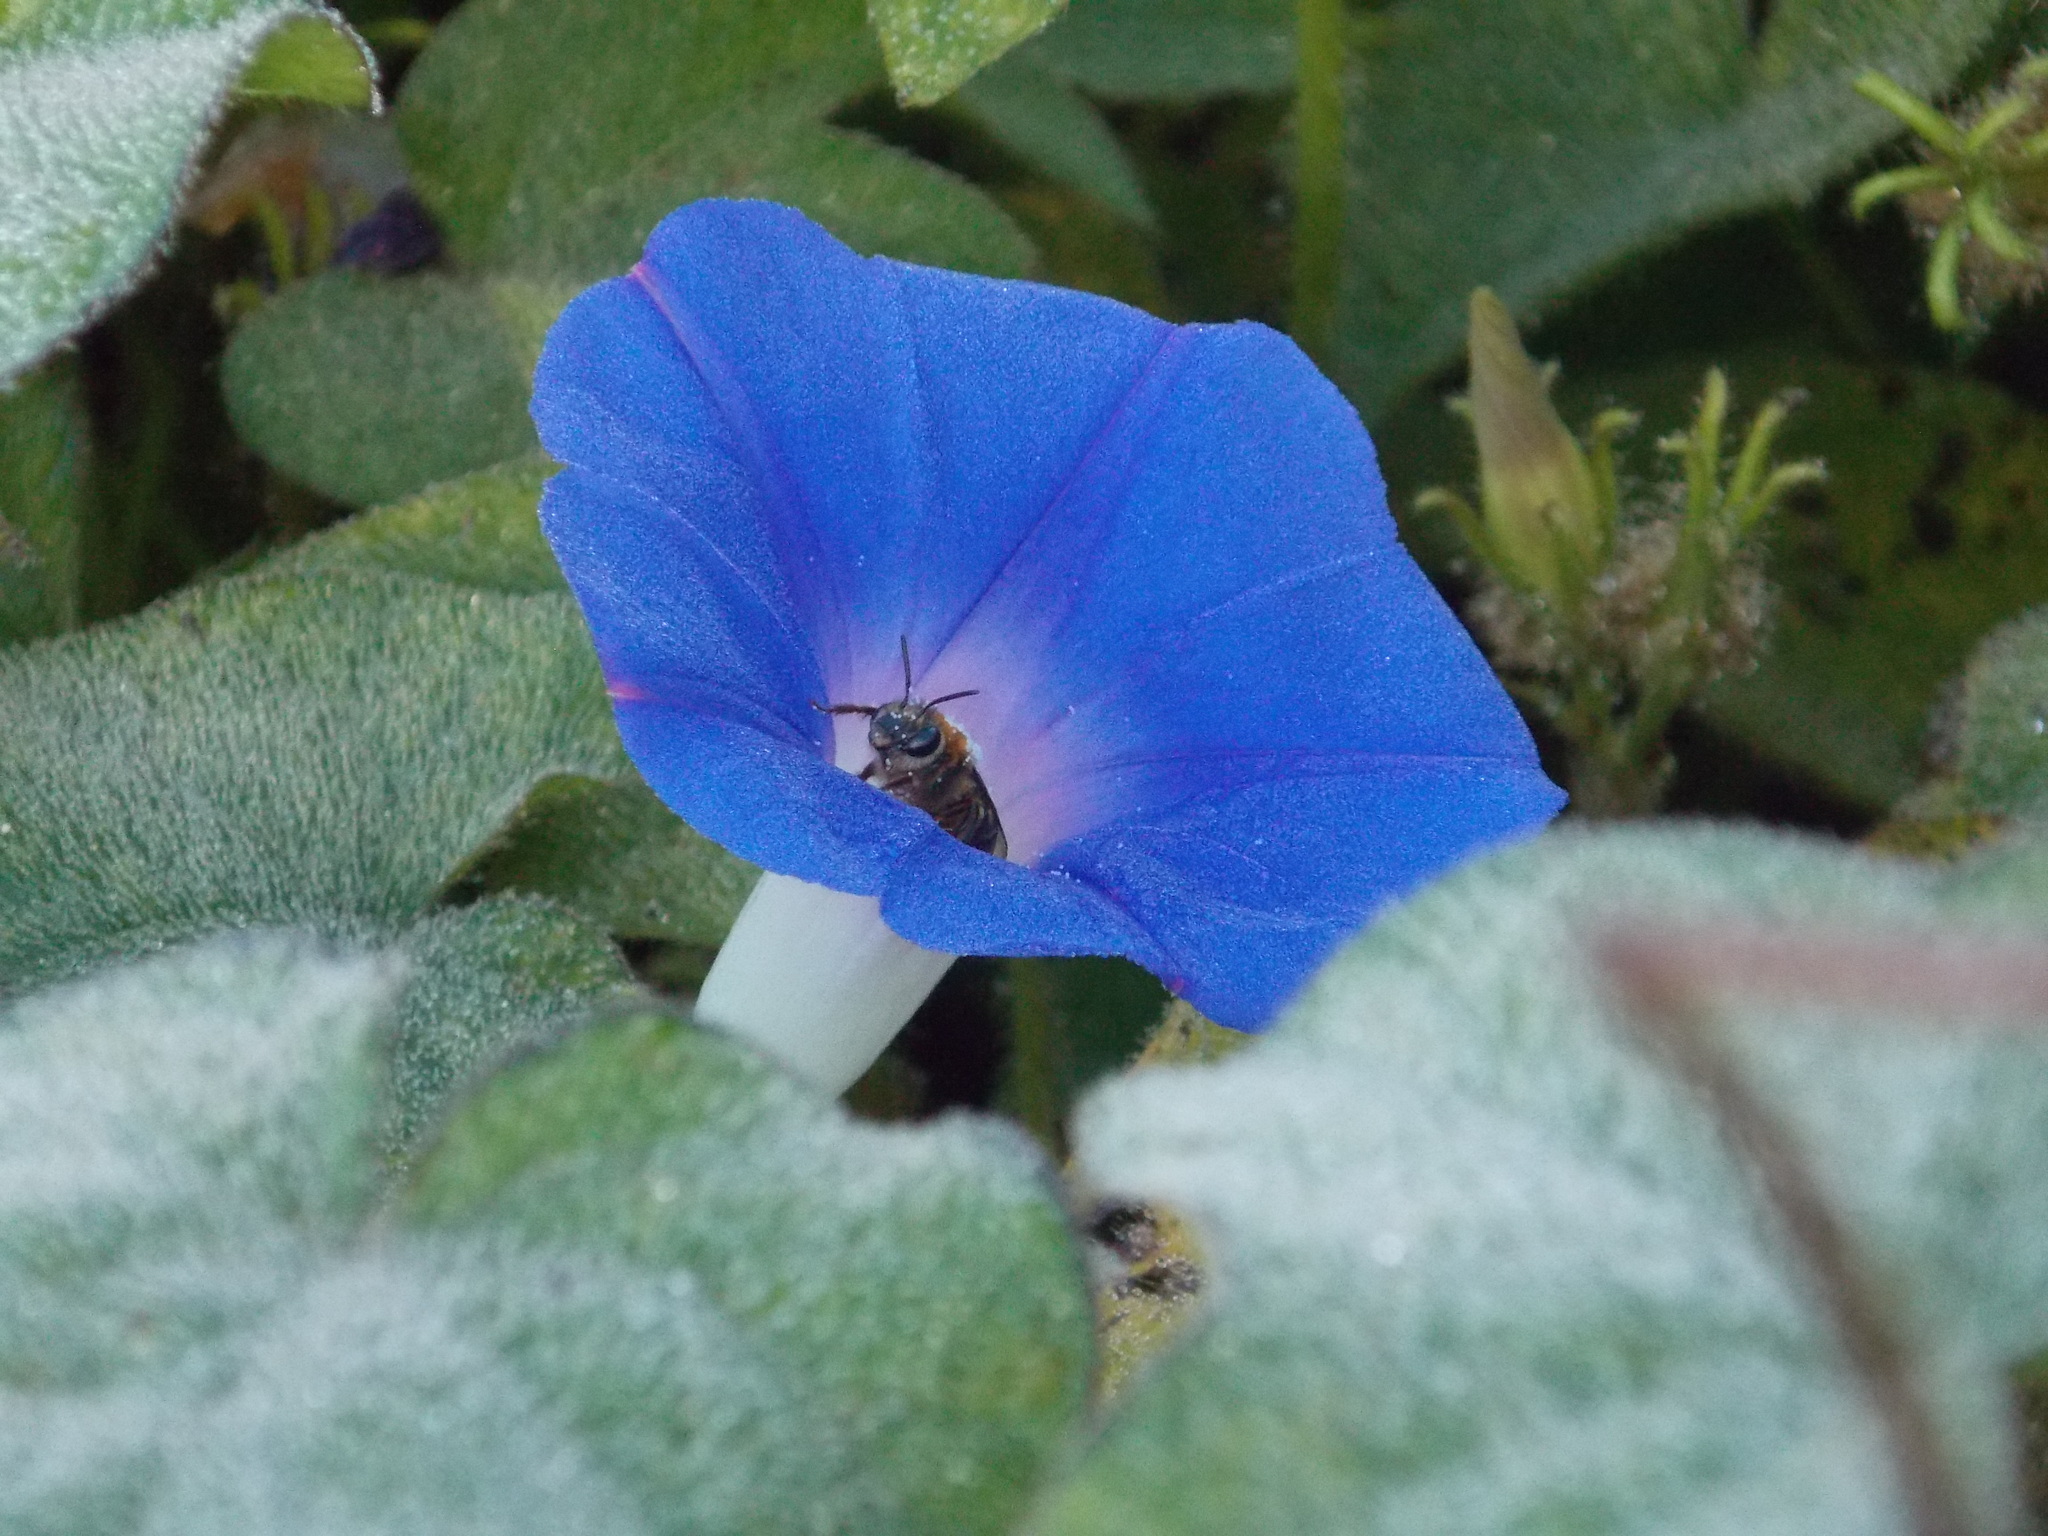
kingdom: Plantae
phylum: Tracheophyta
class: Magnoliopsida
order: Solanales
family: Convolvulaceae
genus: Ipomoea
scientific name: Ipomoea hederacea
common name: Ivy-leaved morning-glory
